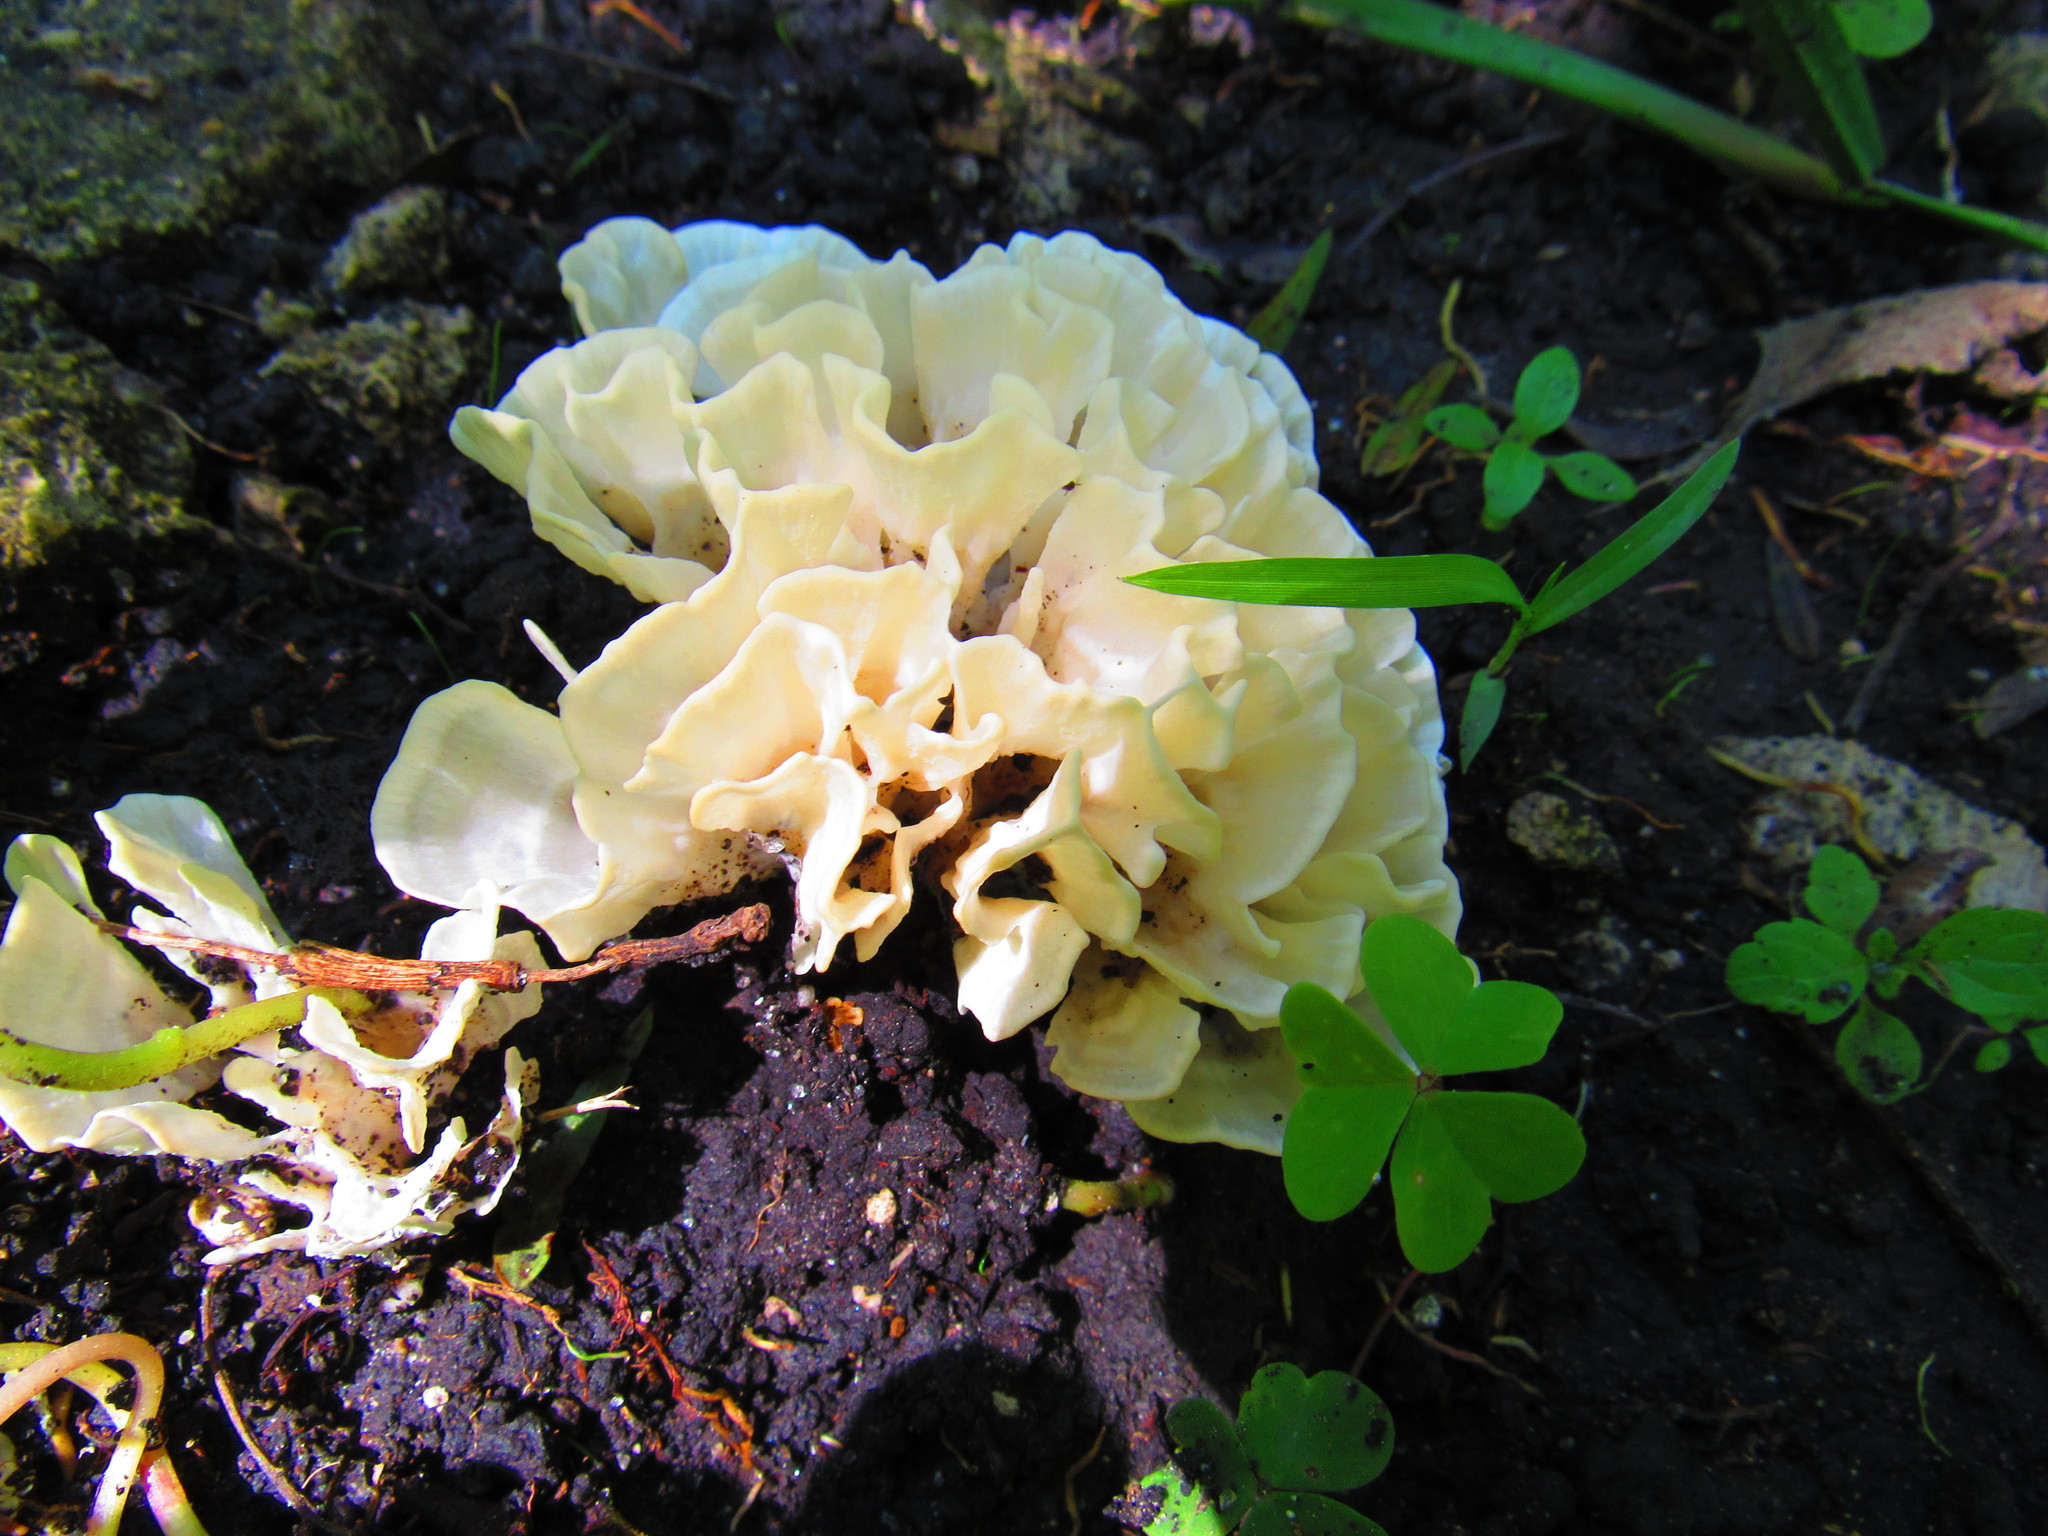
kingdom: Fungi
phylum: Basidiomycota
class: Agaricomycetes
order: Polyporales
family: Sparassidaceae
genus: Sparassis
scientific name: Sparassis spathulata
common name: Eastern cauliflower mushroom
